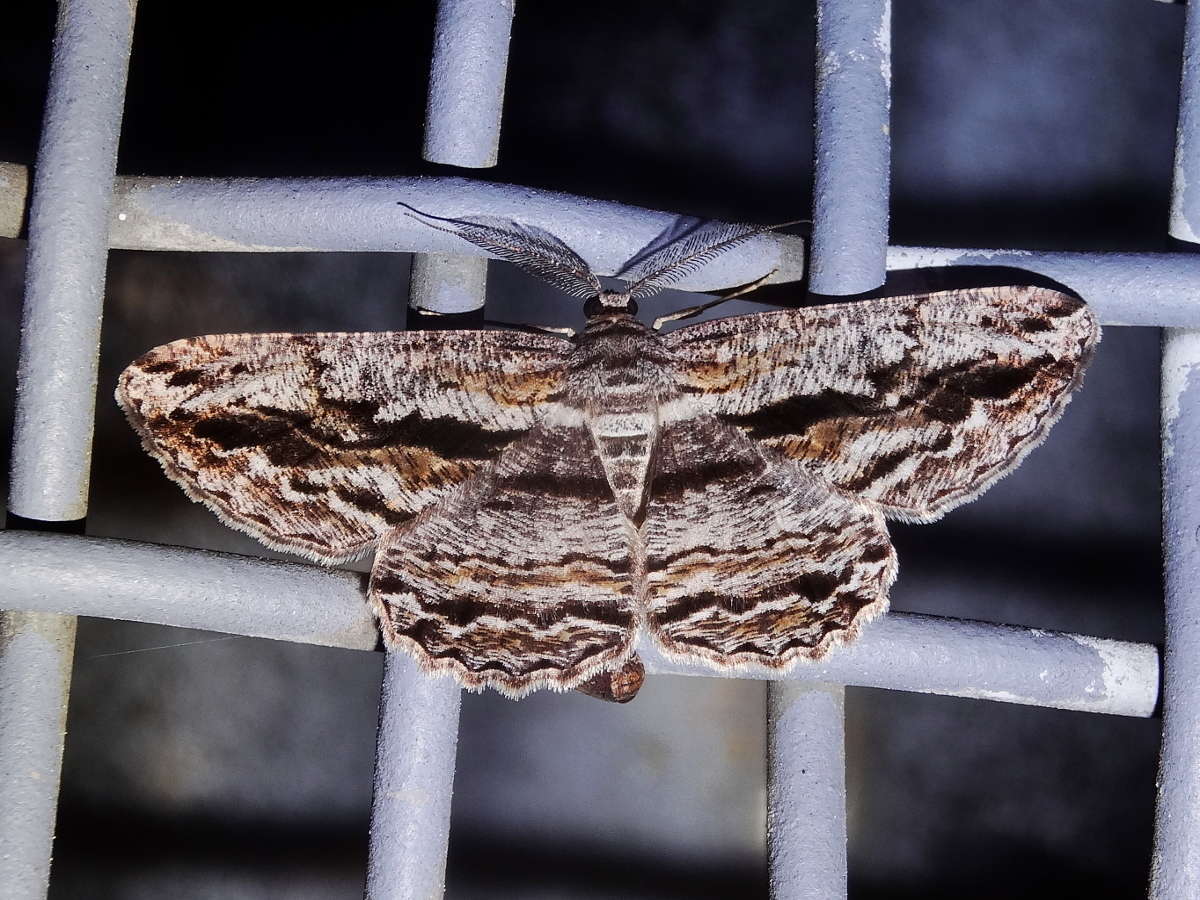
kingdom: Animalia
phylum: Arthropoda
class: Insecta
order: Lepidoptera
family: Geometridae
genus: Scioglyptis
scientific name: Scioglyptis chionomera
